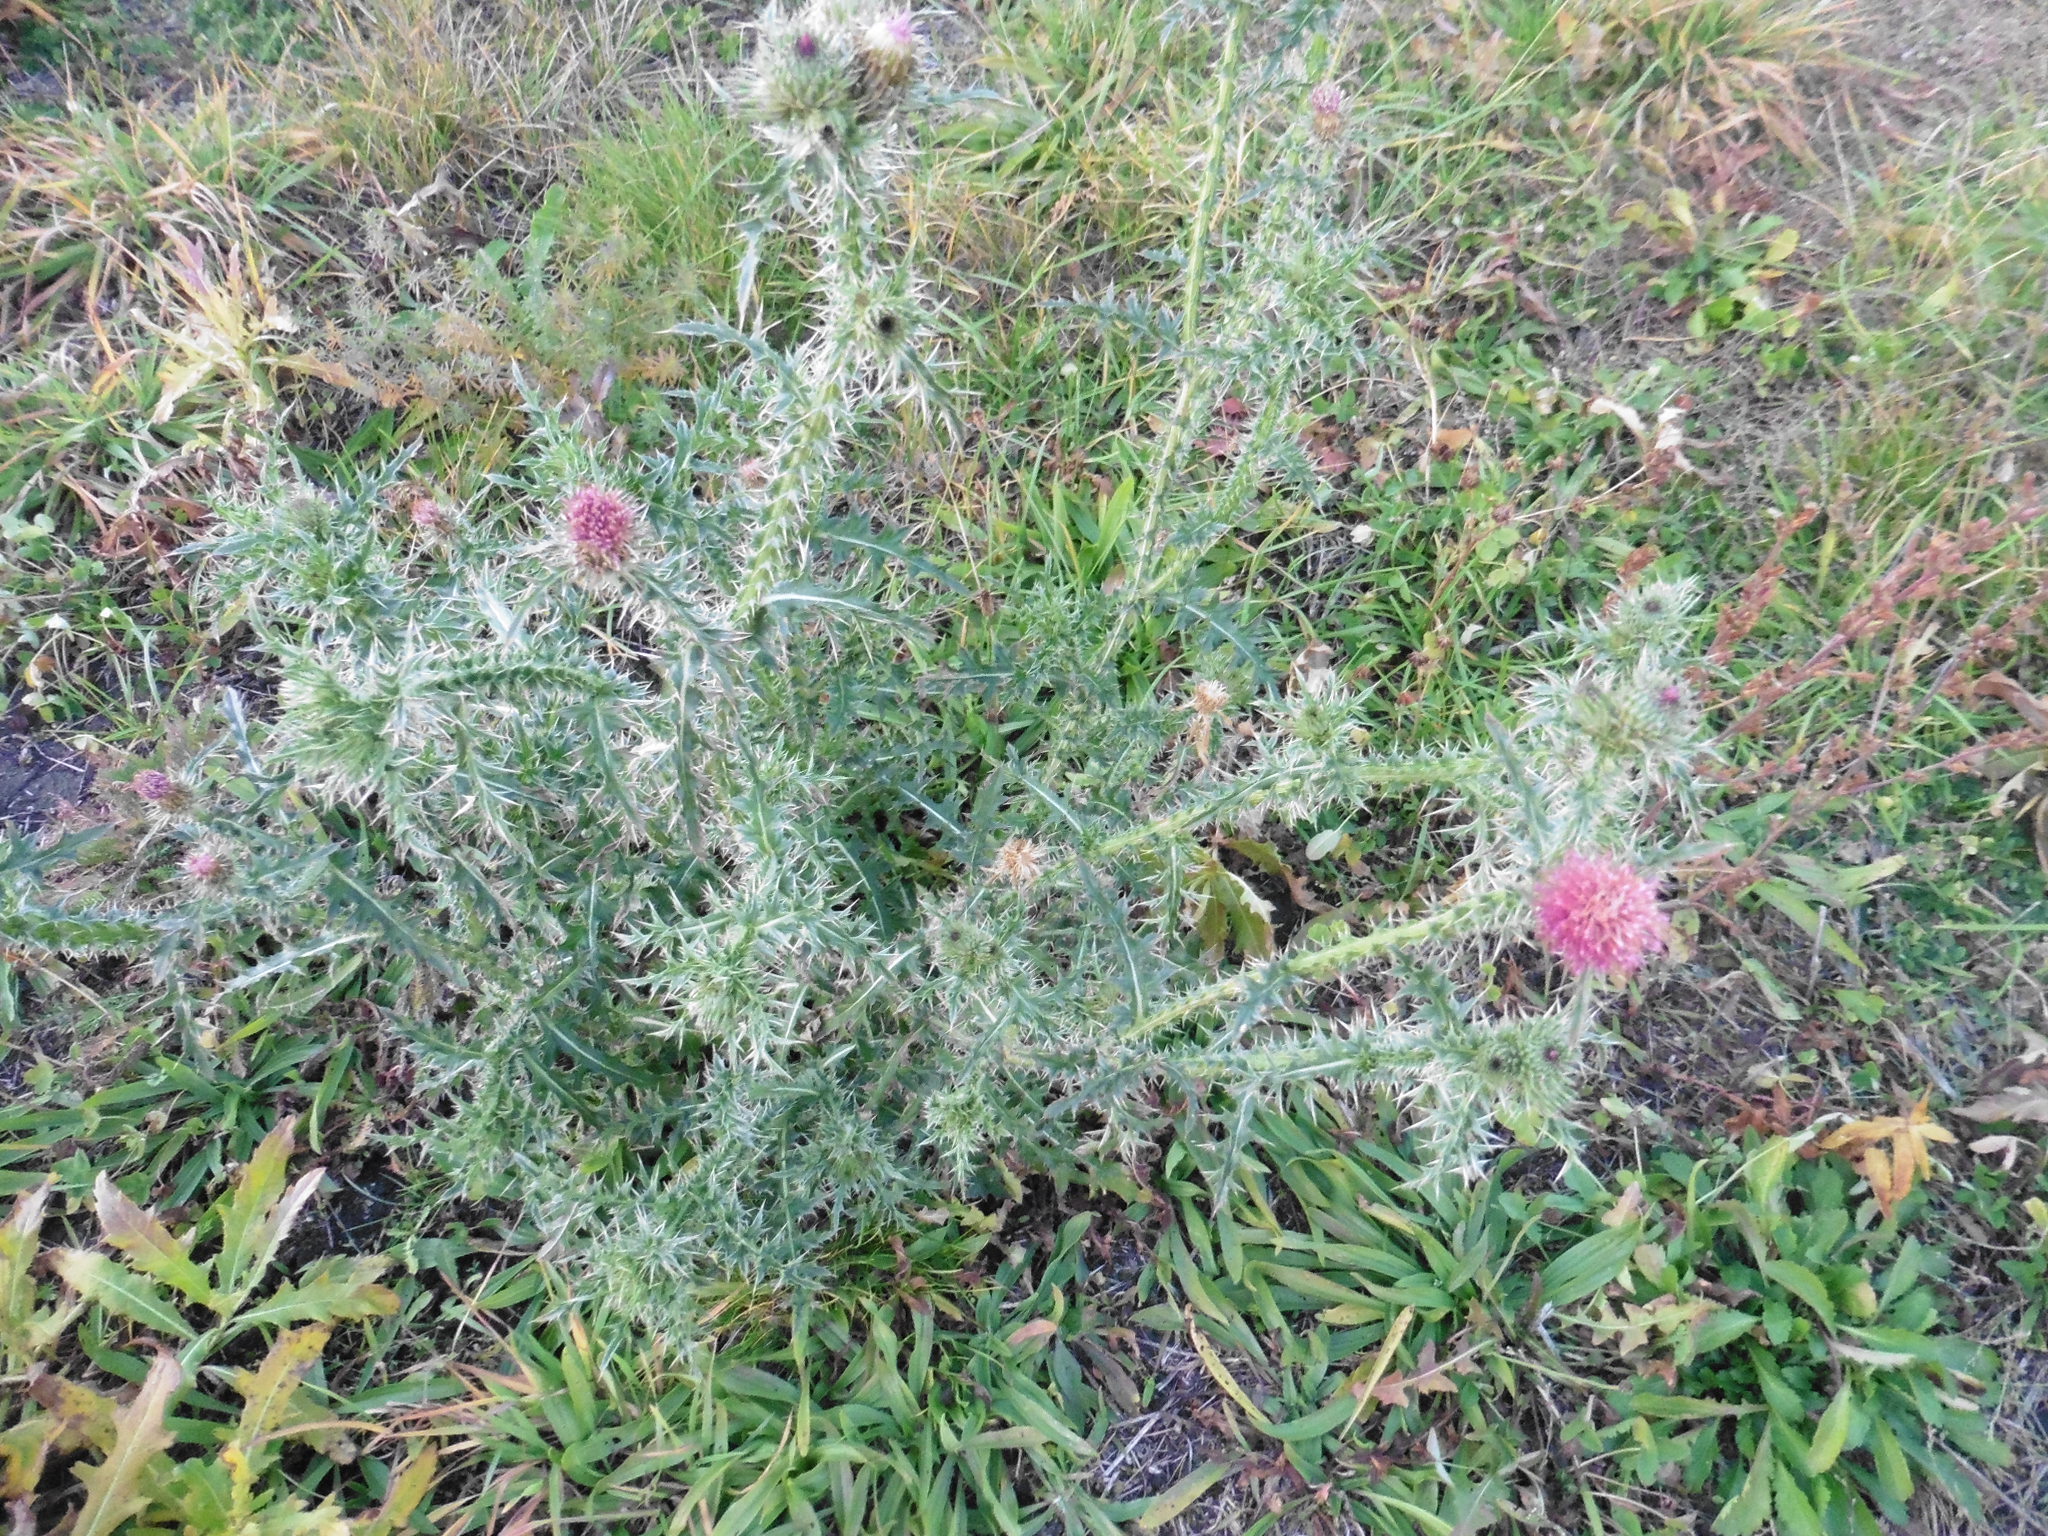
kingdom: Plantae
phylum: Tracheophyta
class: Magnoliopsida
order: Asterales
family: Asteraceae
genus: Carduus
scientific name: Carduus acanthoides
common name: Plumeless thistle
